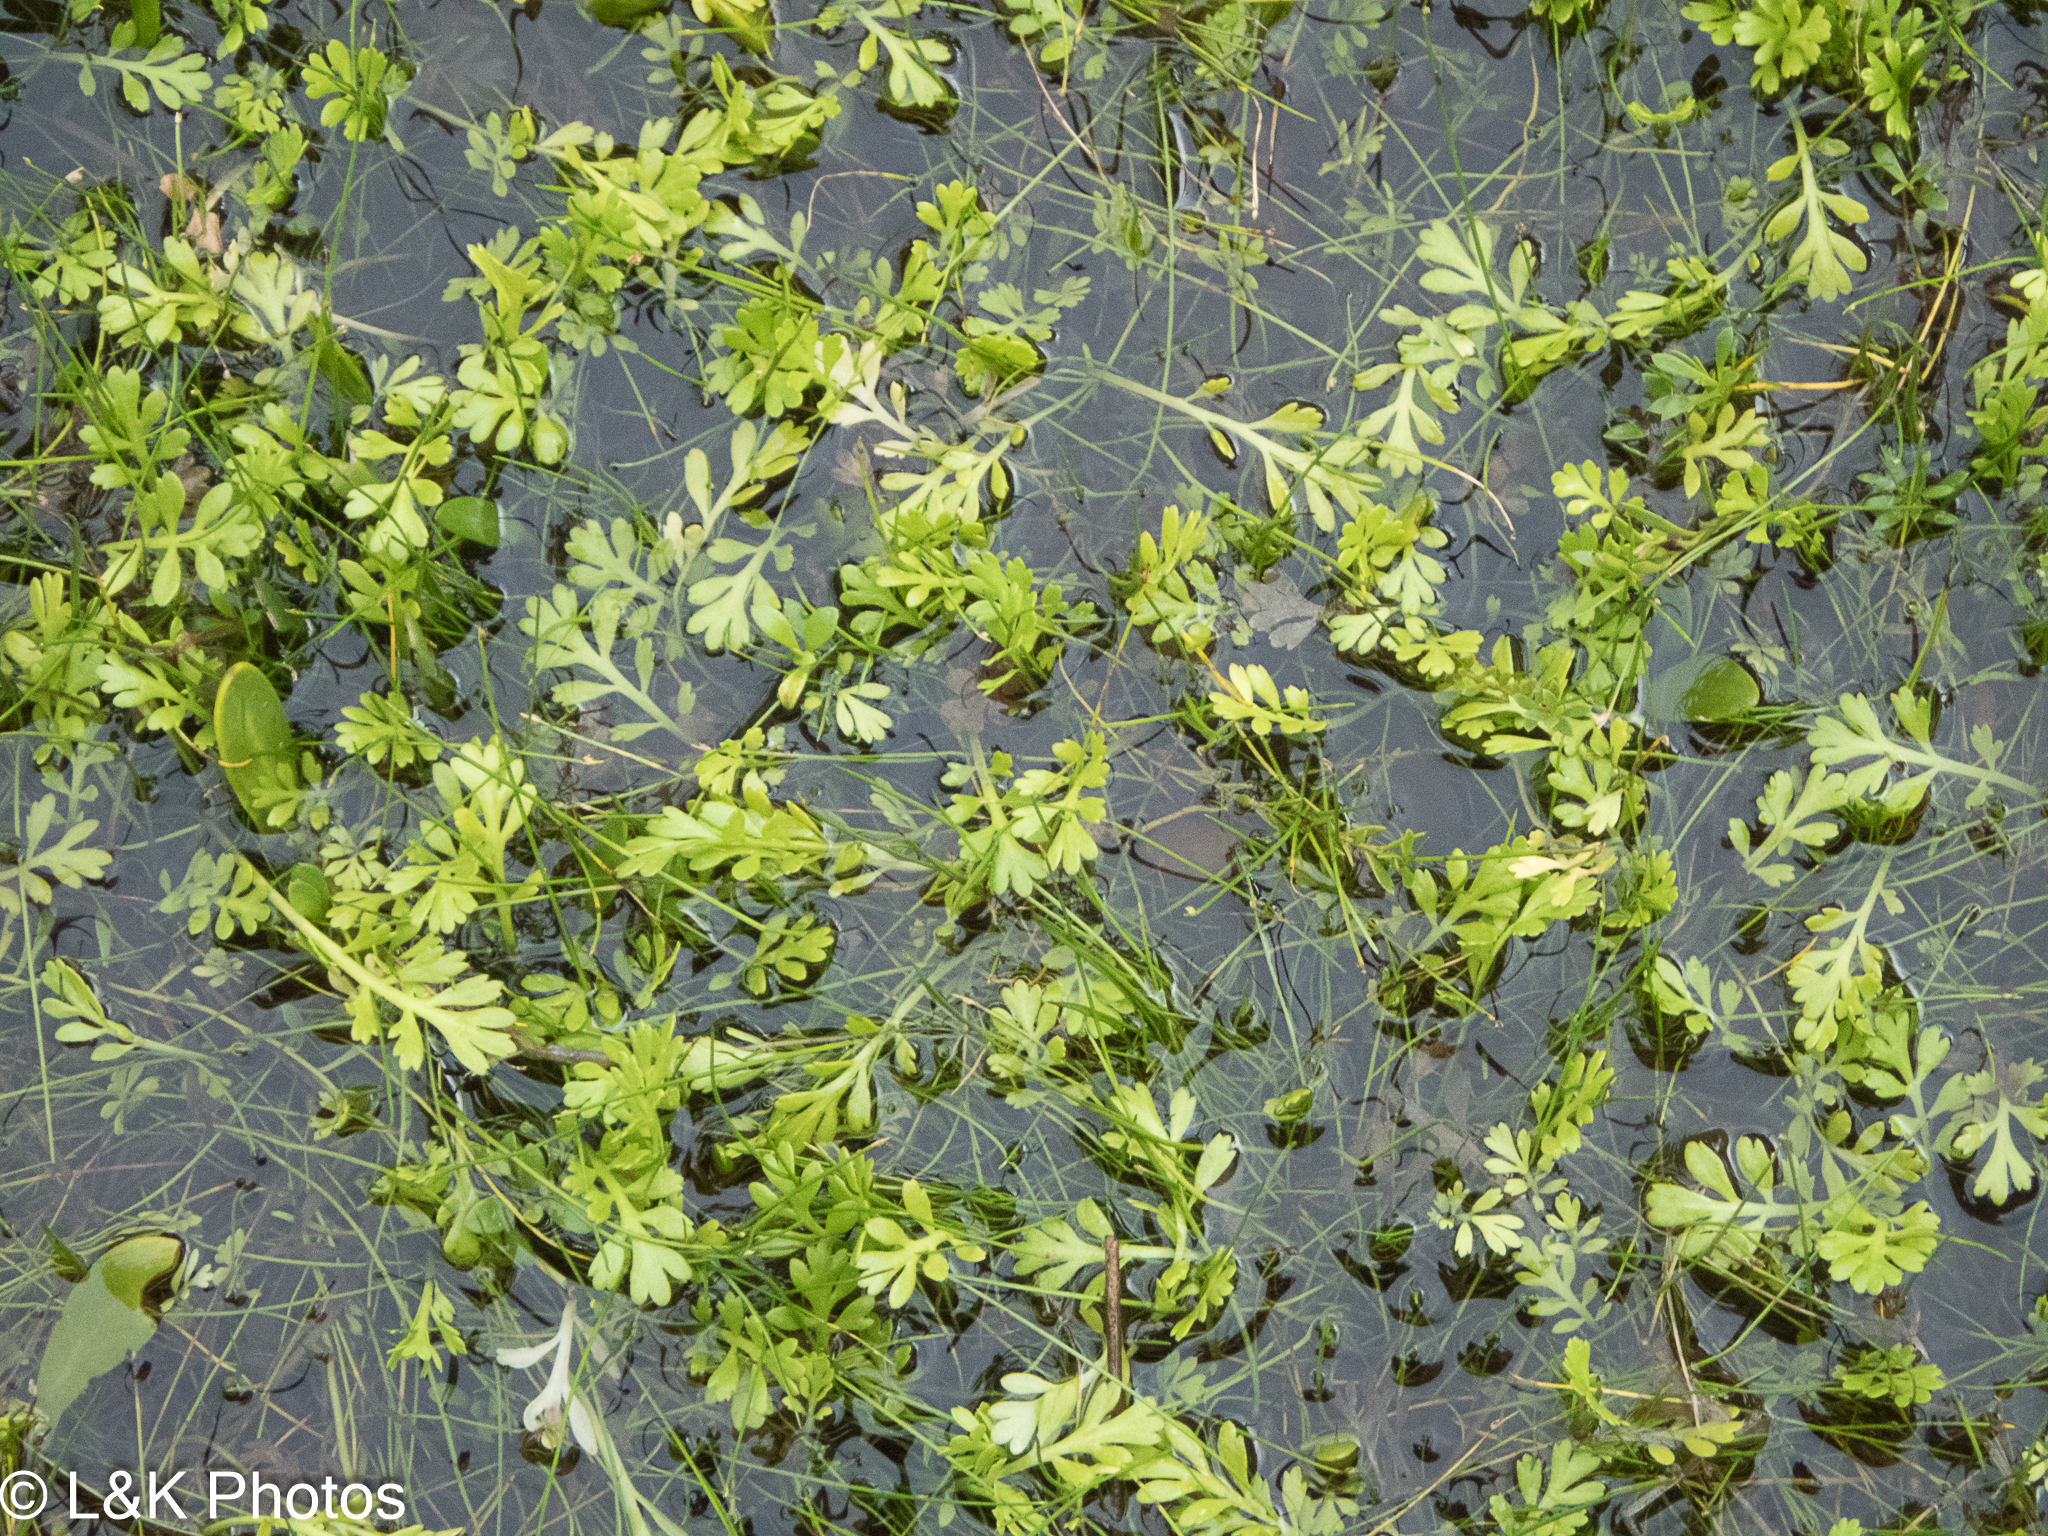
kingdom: Plantae
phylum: Tracheophyta
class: Magnoliopsida
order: Asterales
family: Asteraceae
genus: Leptinella
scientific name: Leptinella longipes
